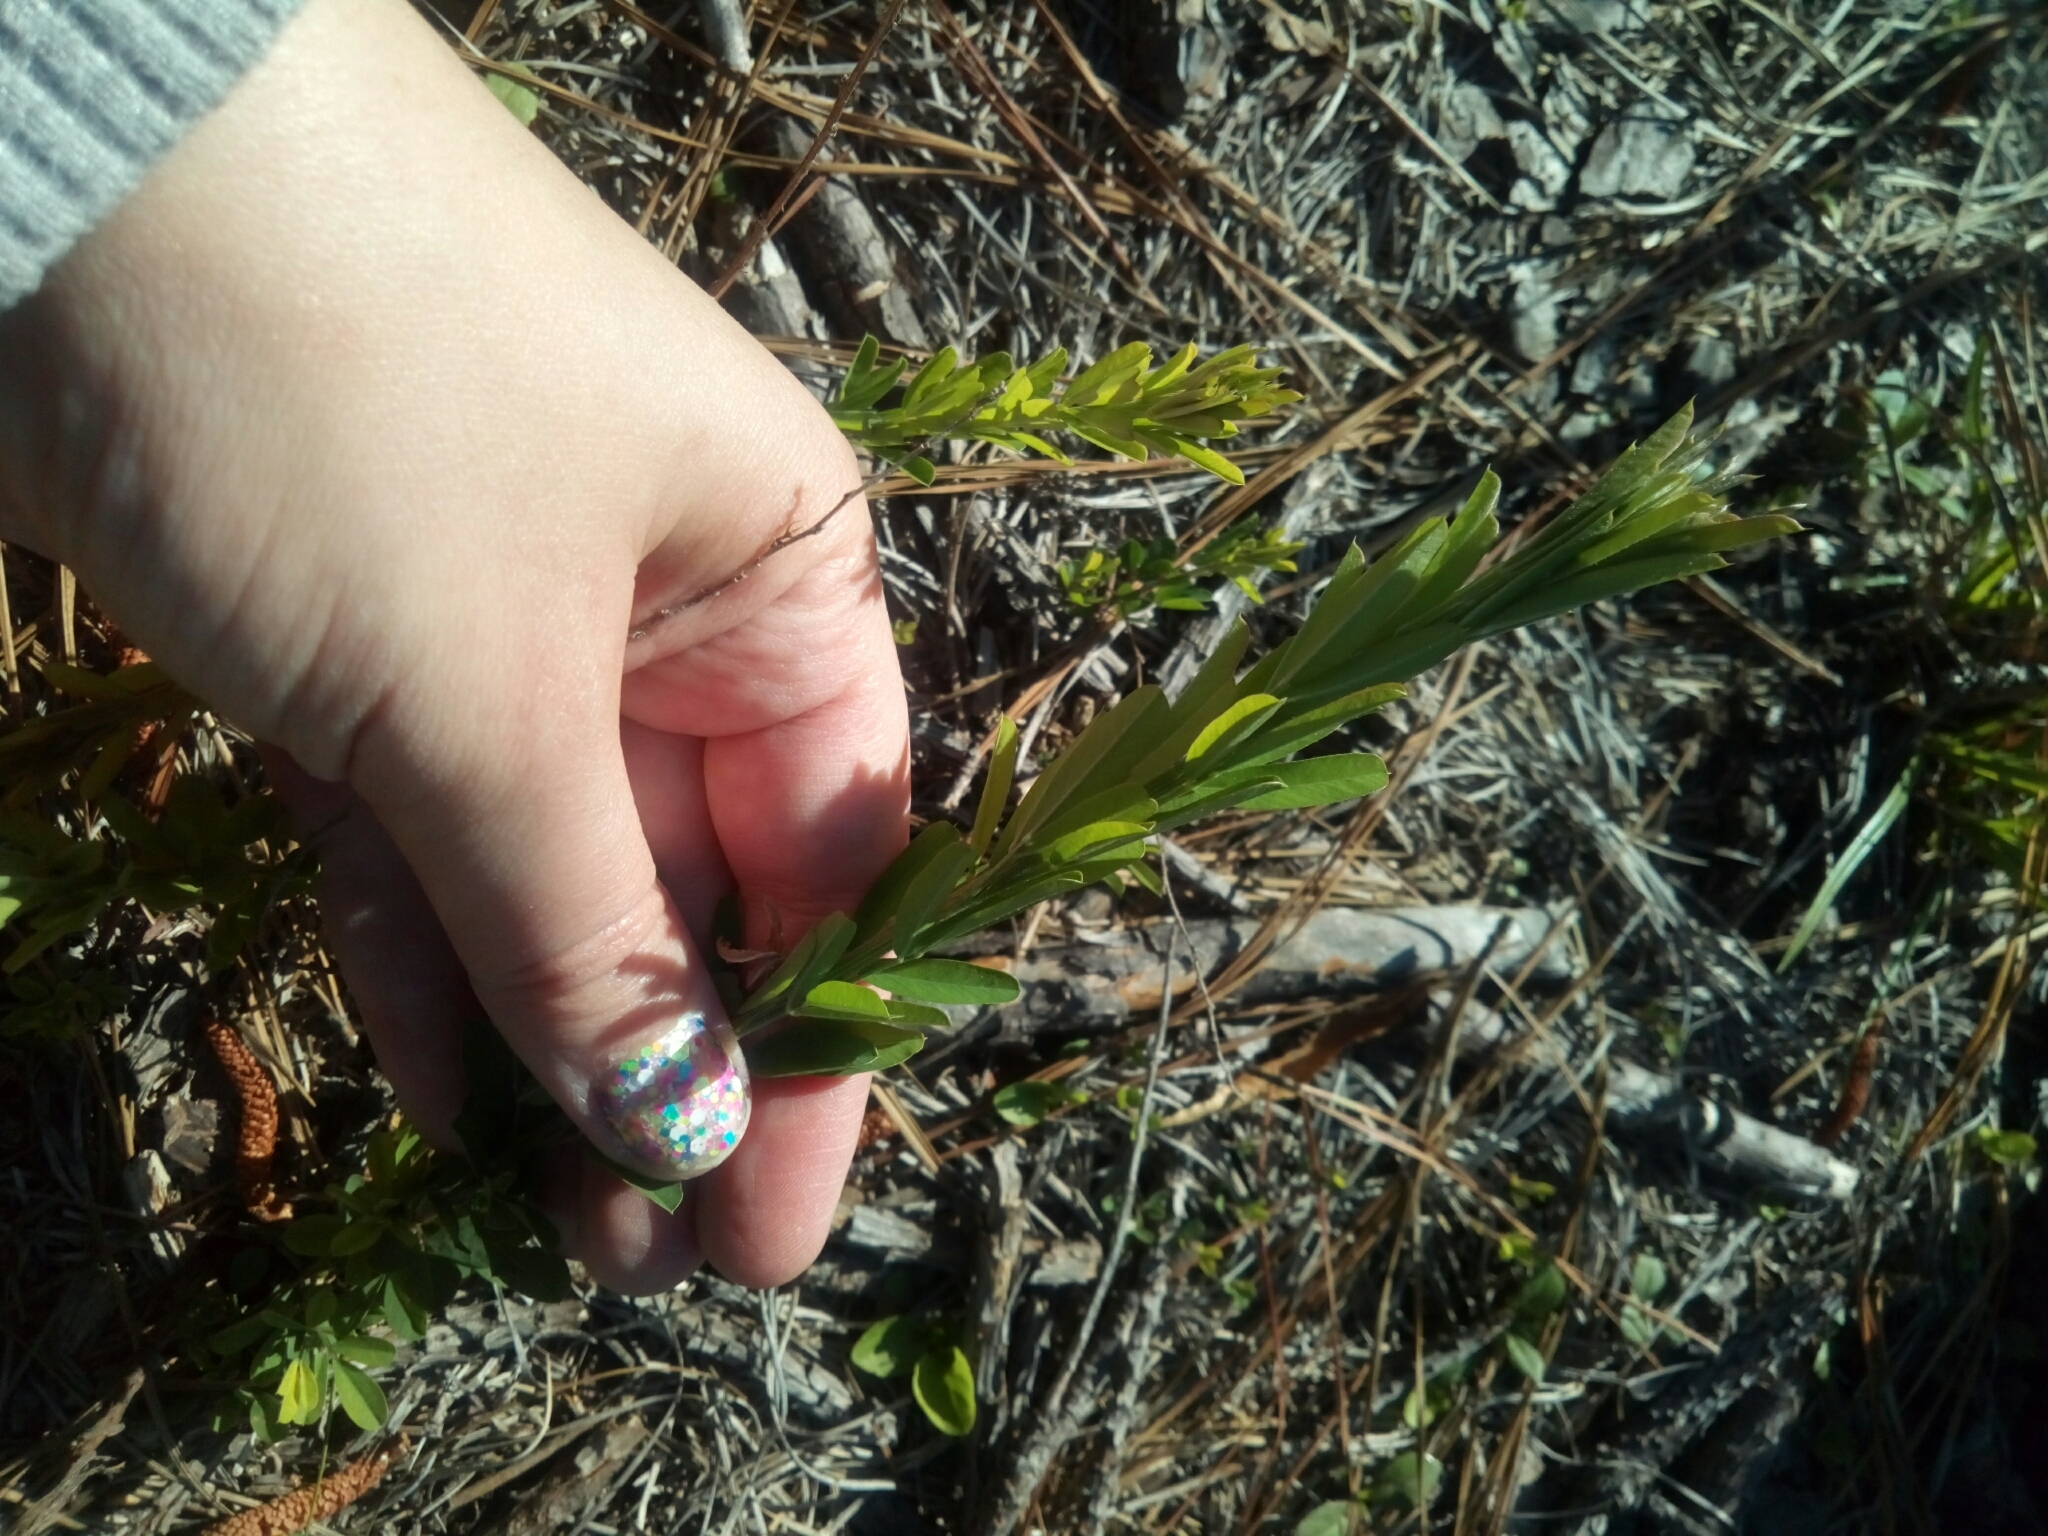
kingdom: Plantae
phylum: Tracheophyta
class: Magnoliopsida
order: Fabales
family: Fabaceae
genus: Lespedeza
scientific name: Lespedeza cuneata
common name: Chinese bush-clover
